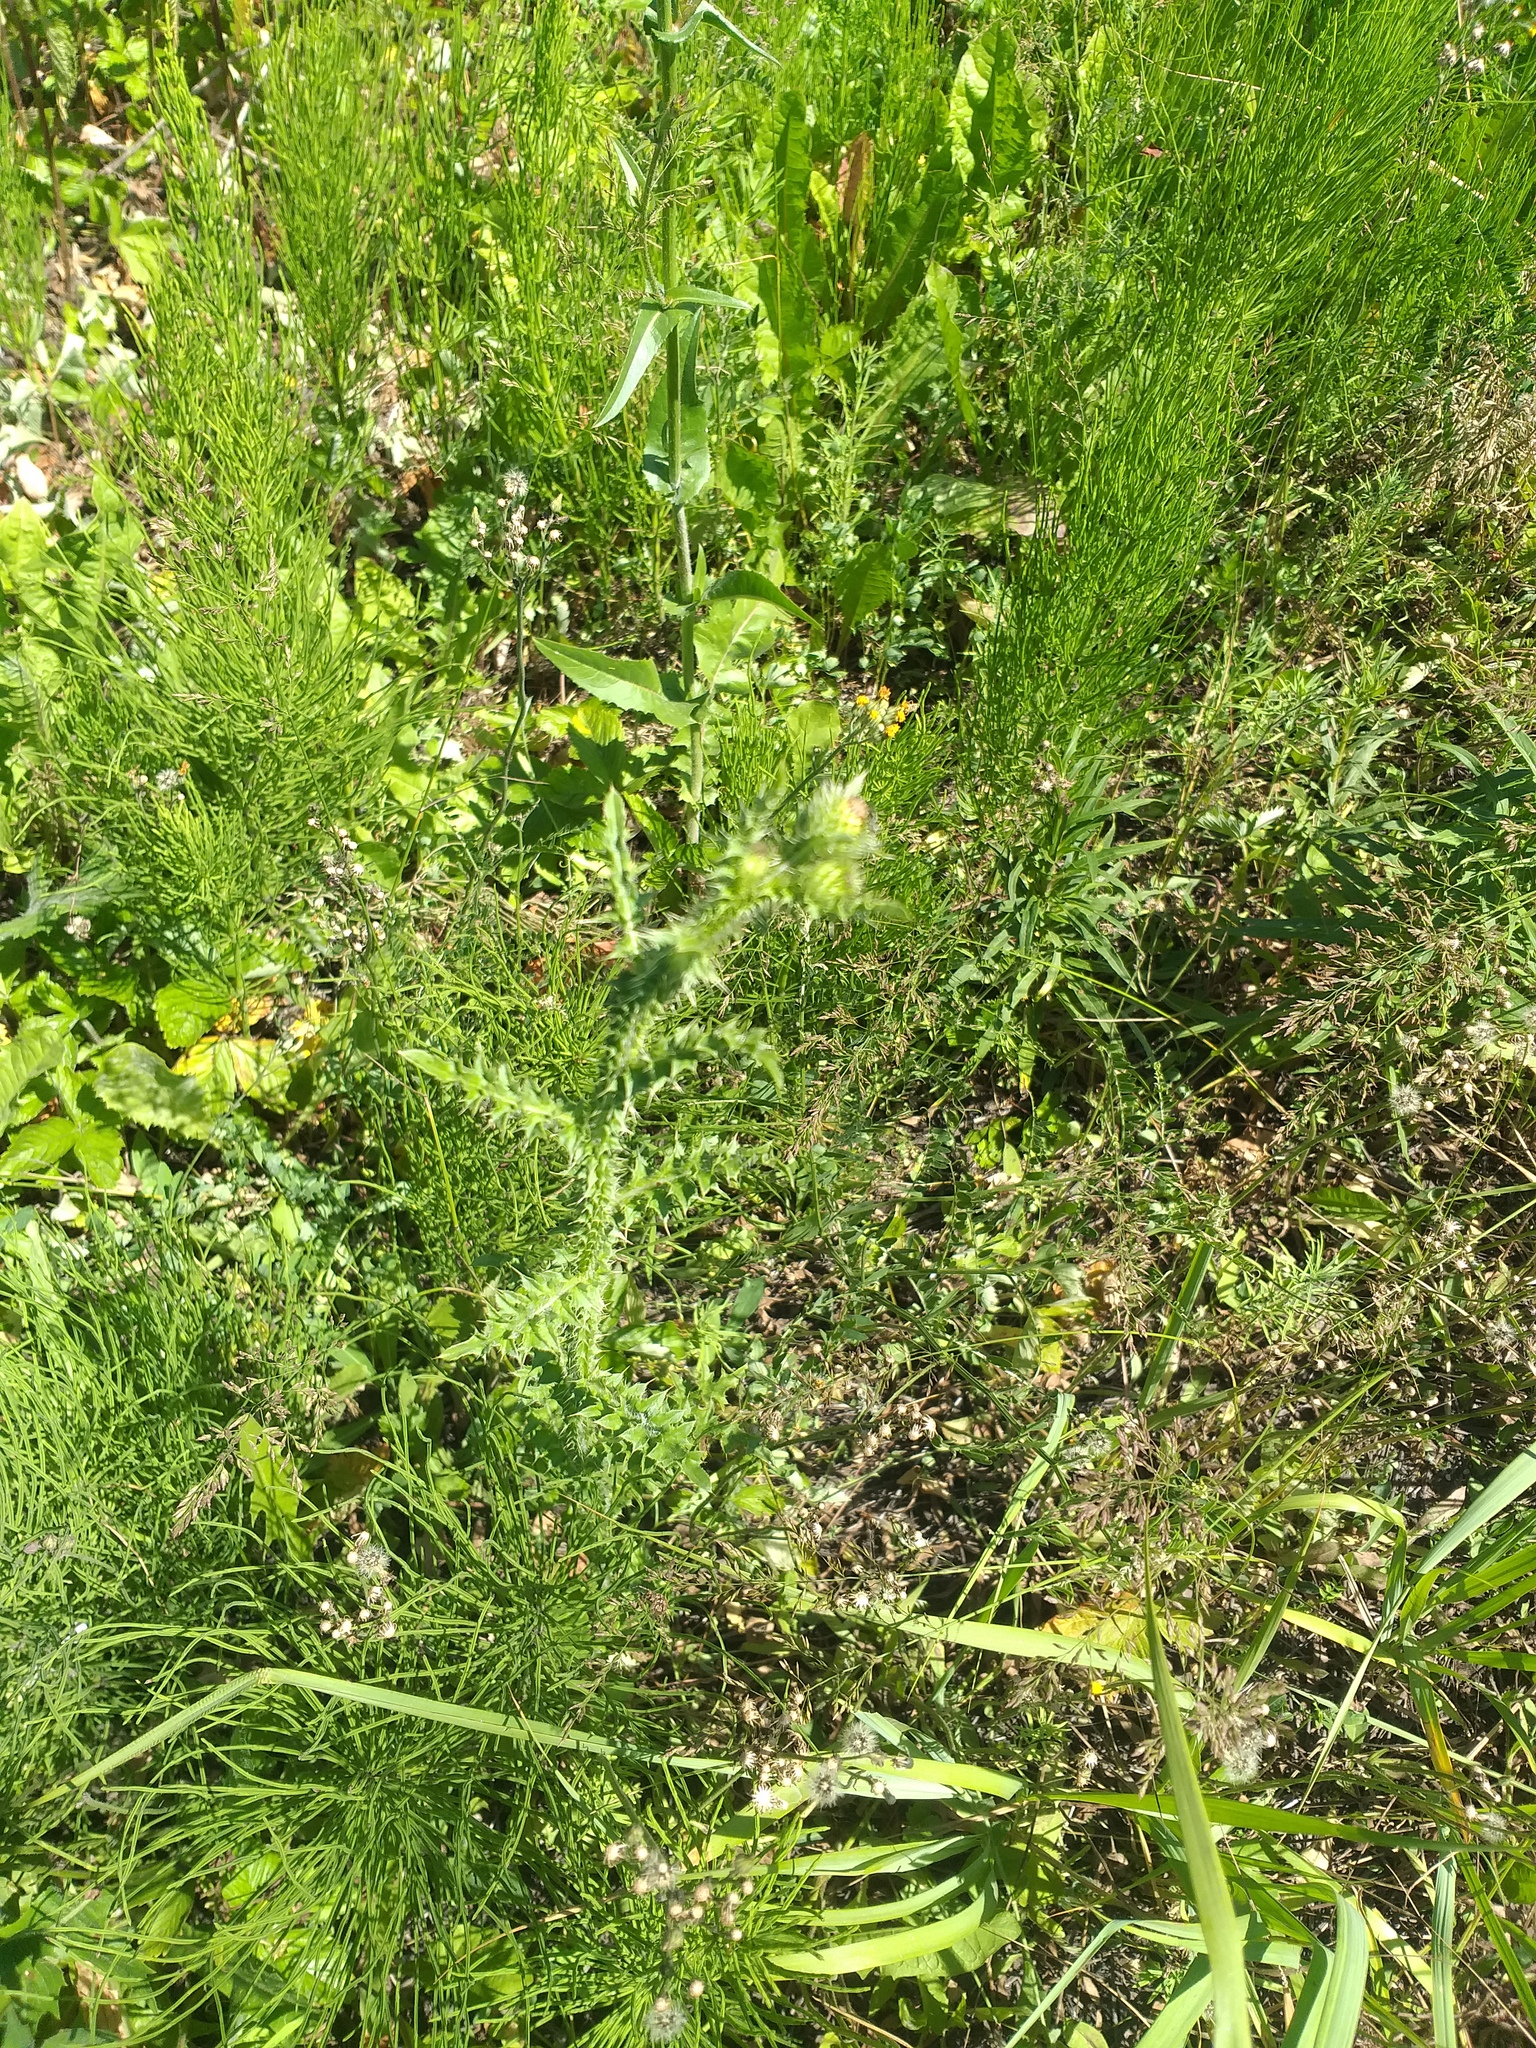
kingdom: Plantae
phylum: Tracheophyta
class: Magnoliopsida
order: Asterales
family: Asteraceae
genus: Carduus
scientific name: Carduus acanthoides
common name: Plumeless thistle
